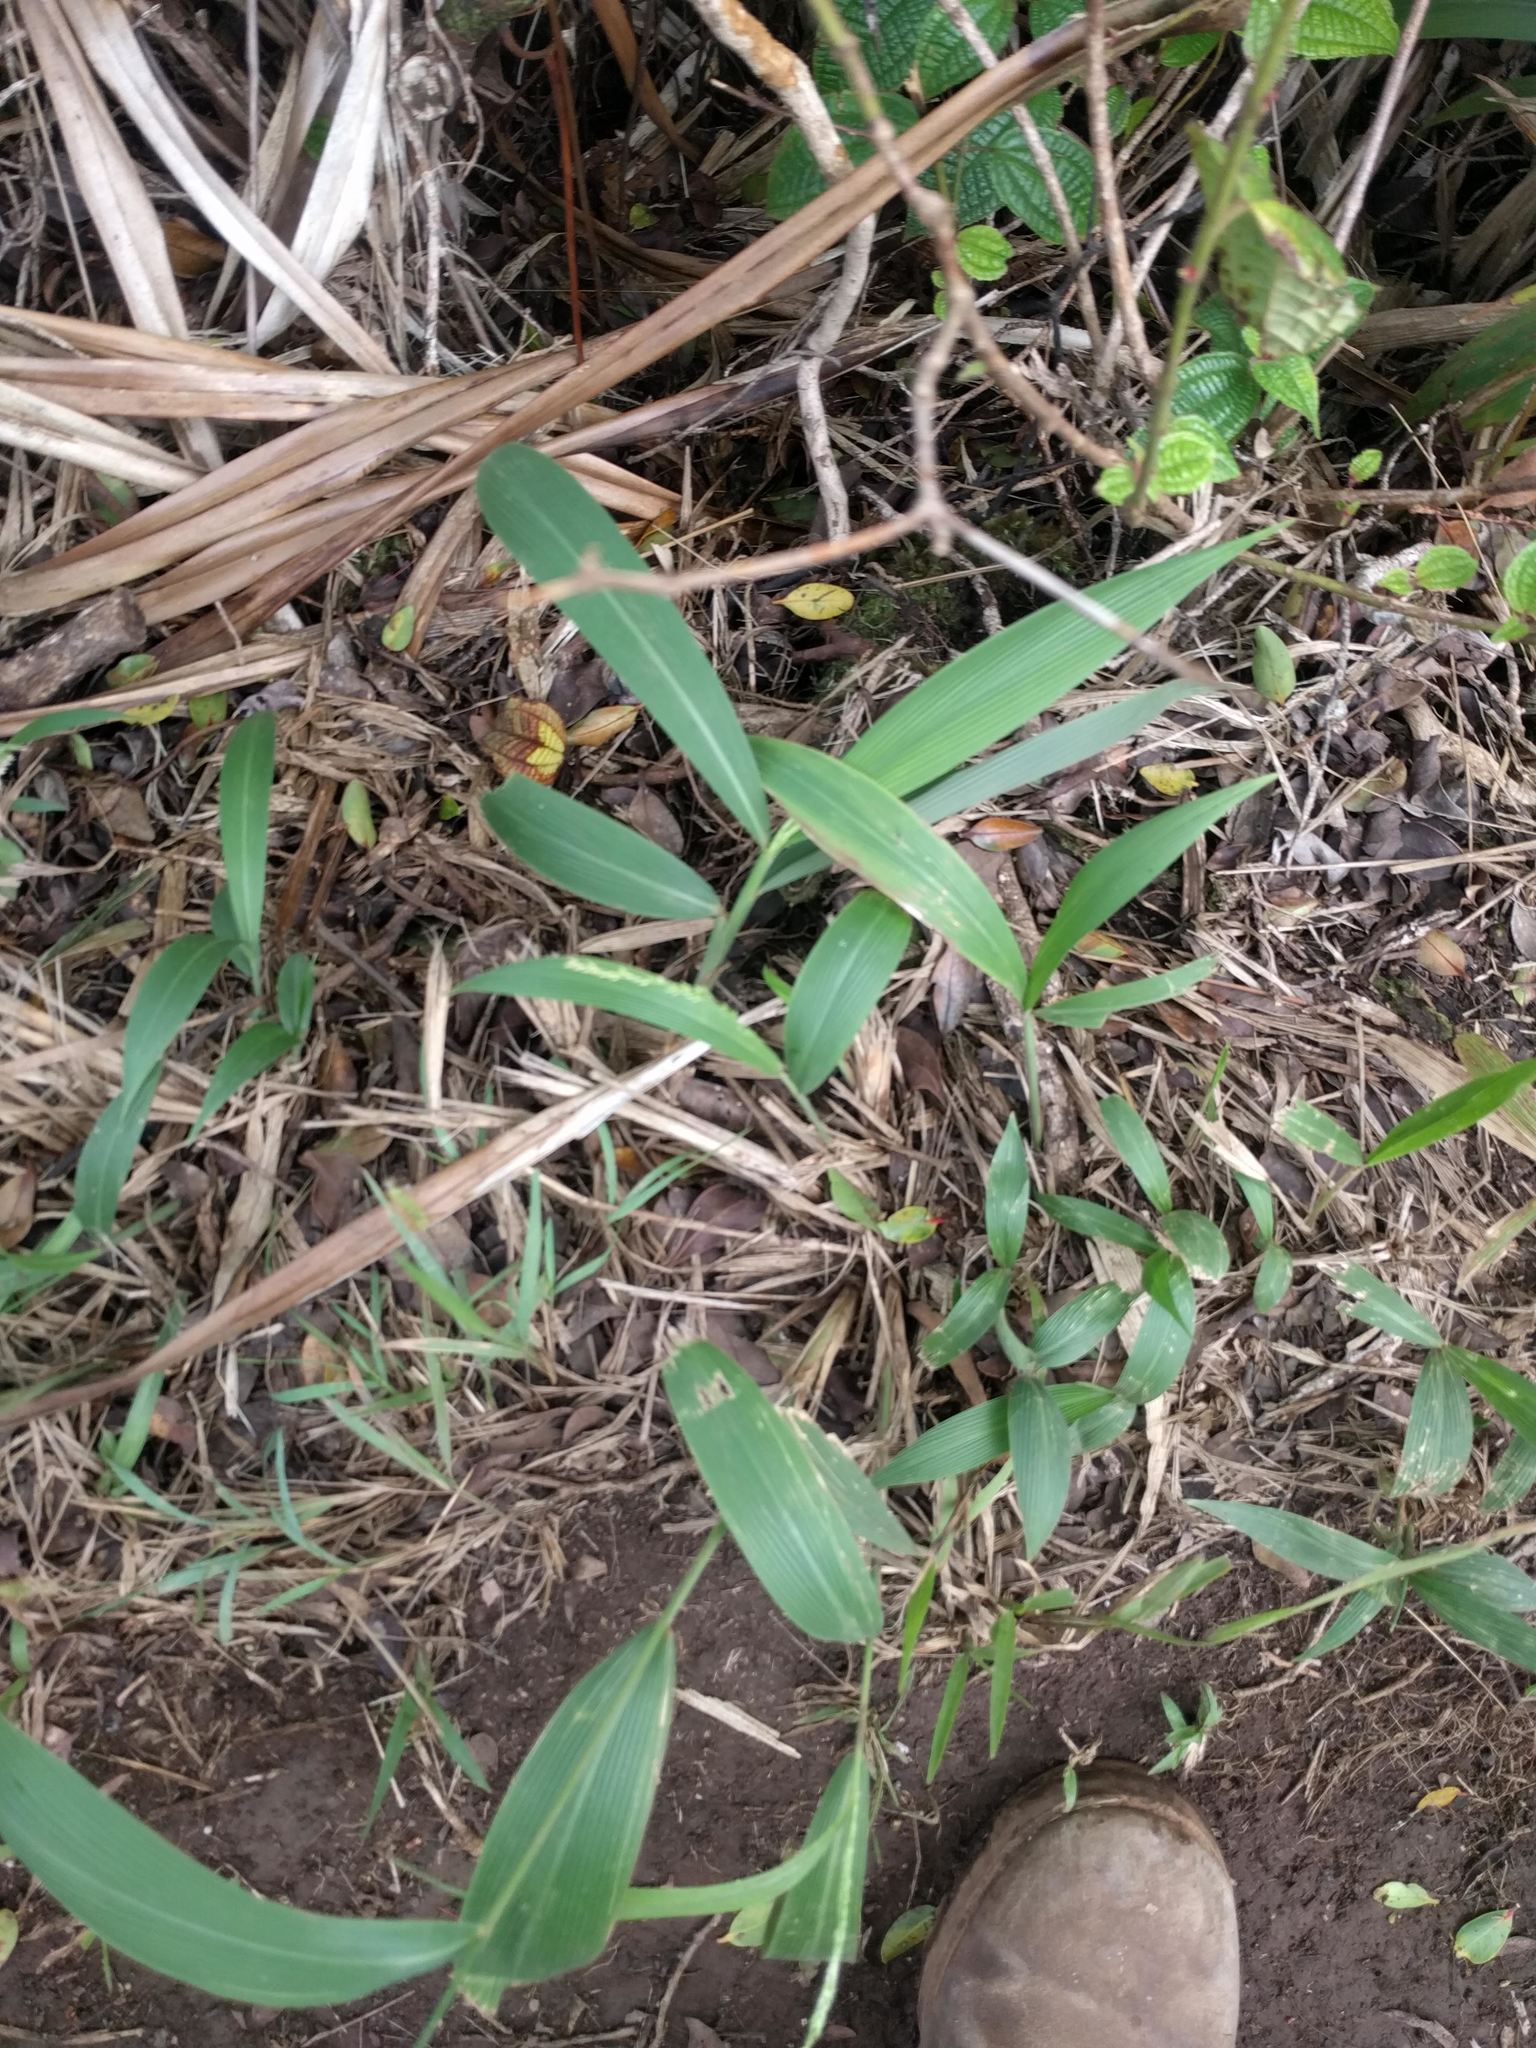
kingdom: Plantae
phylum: Tracheophyta
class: Liliopsida
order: Poales
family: Poaceae
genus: Setaria
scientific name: Setaria palmifolia
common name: Broadleaved bristlegrass
